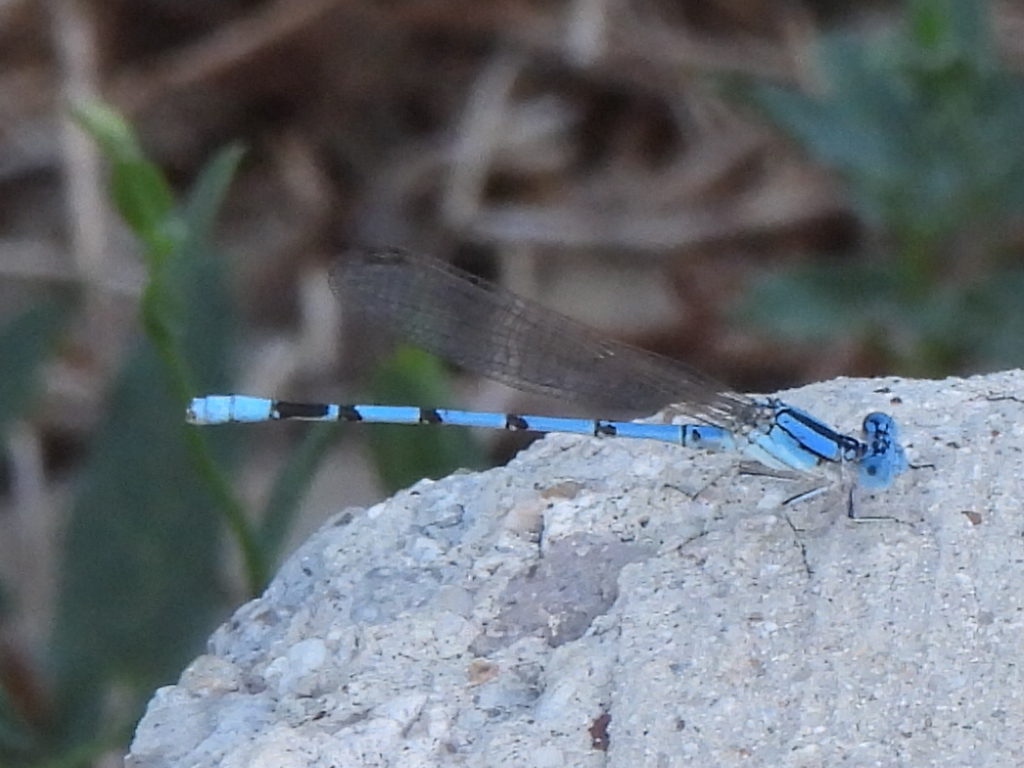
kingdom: Animalia
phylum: Arthropoda
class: Insecta
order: Odonata
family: Coenagrionidae
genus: Argia
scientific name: Argia nahuana
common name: Aztec dancer
